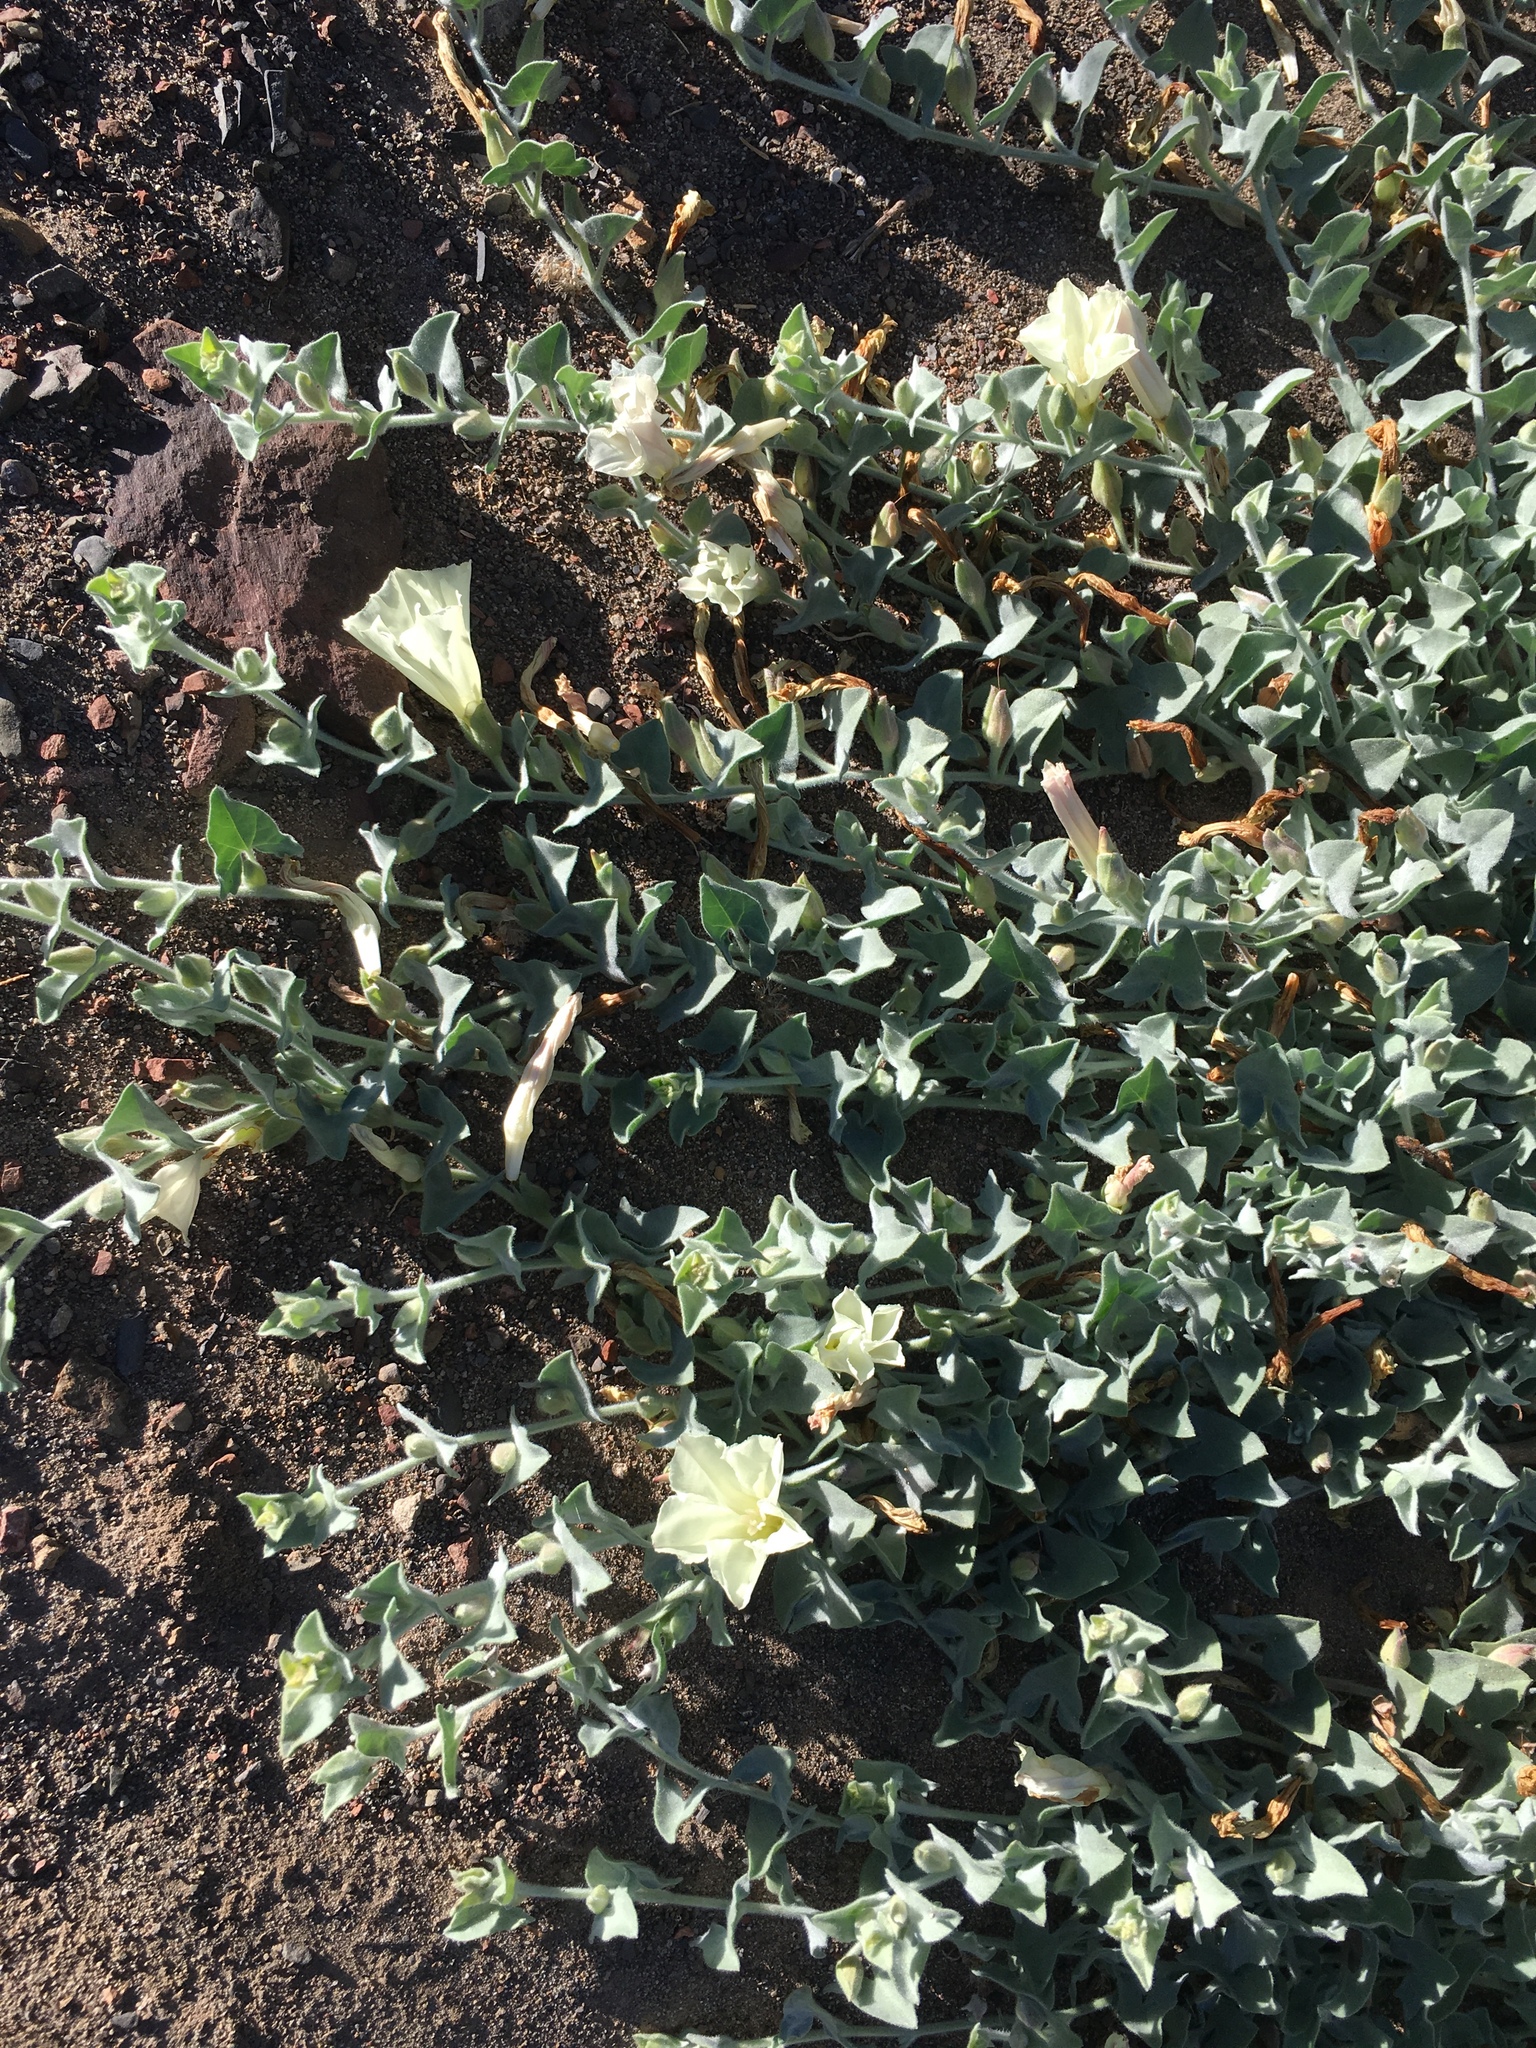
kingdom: Plantae
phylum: Tracheophyta
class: Magnoliopsida
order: Solanales
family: Convolvulaceae
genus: Calystegia
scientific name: Calystegia malacophylla
